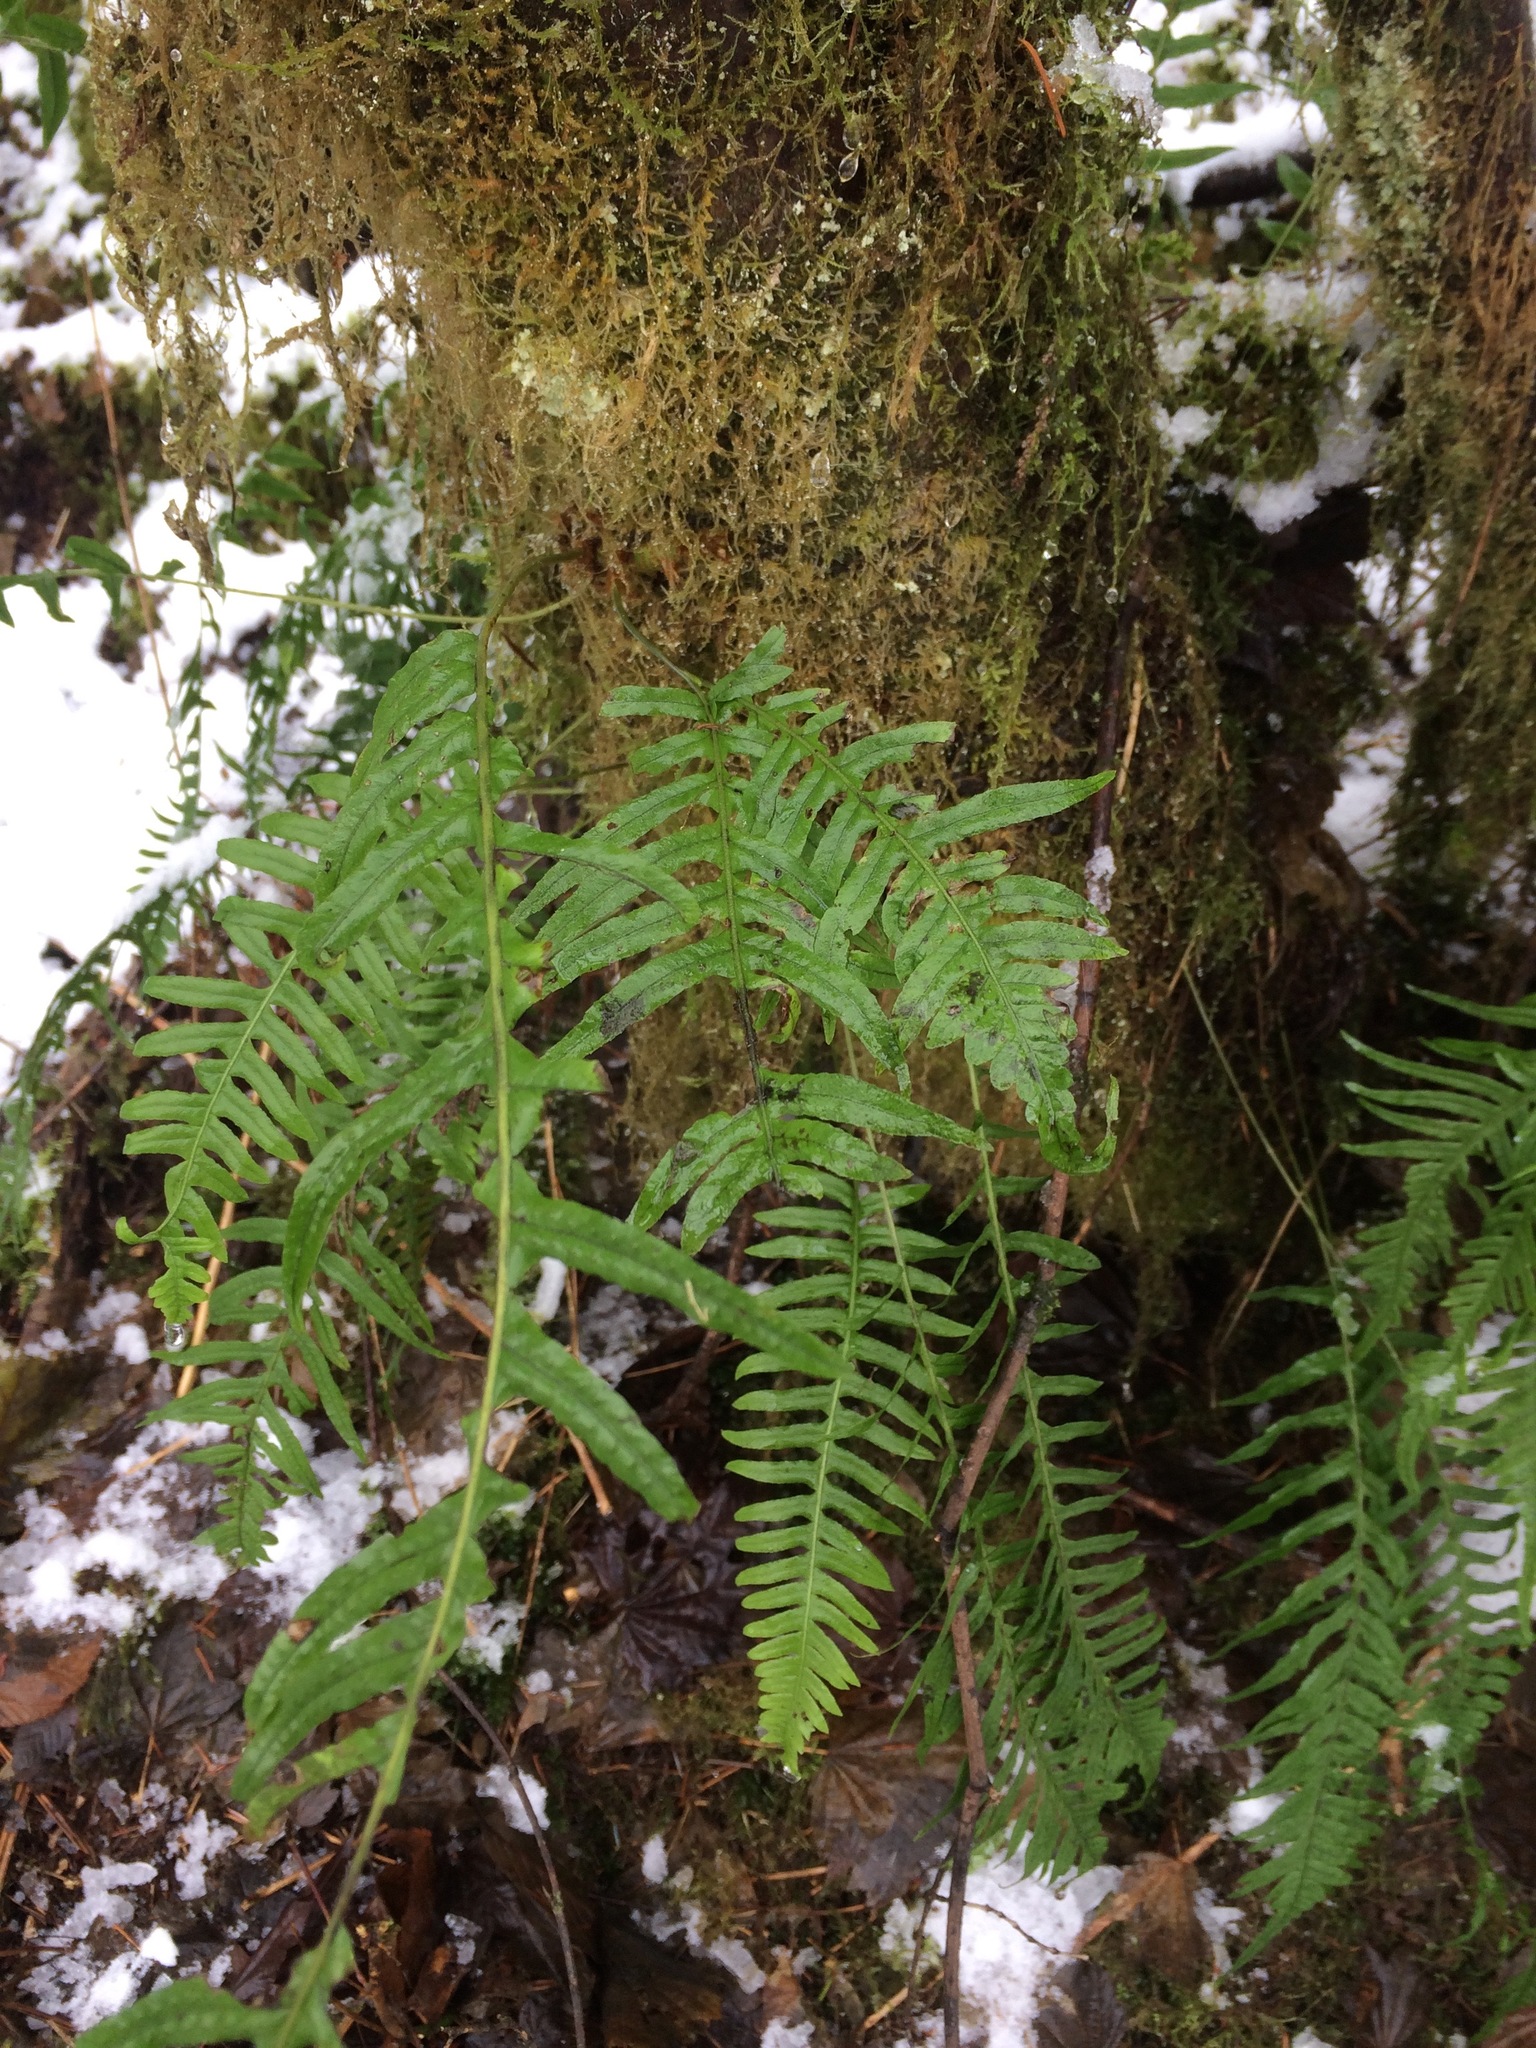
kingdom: Plantae
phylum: Tracheophyta
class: Polypodiopsida
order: Polypodiales
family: Polypodiaceae
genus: Polypodium
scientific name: Polypodium glycyrrhiza
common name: Licorice fern
